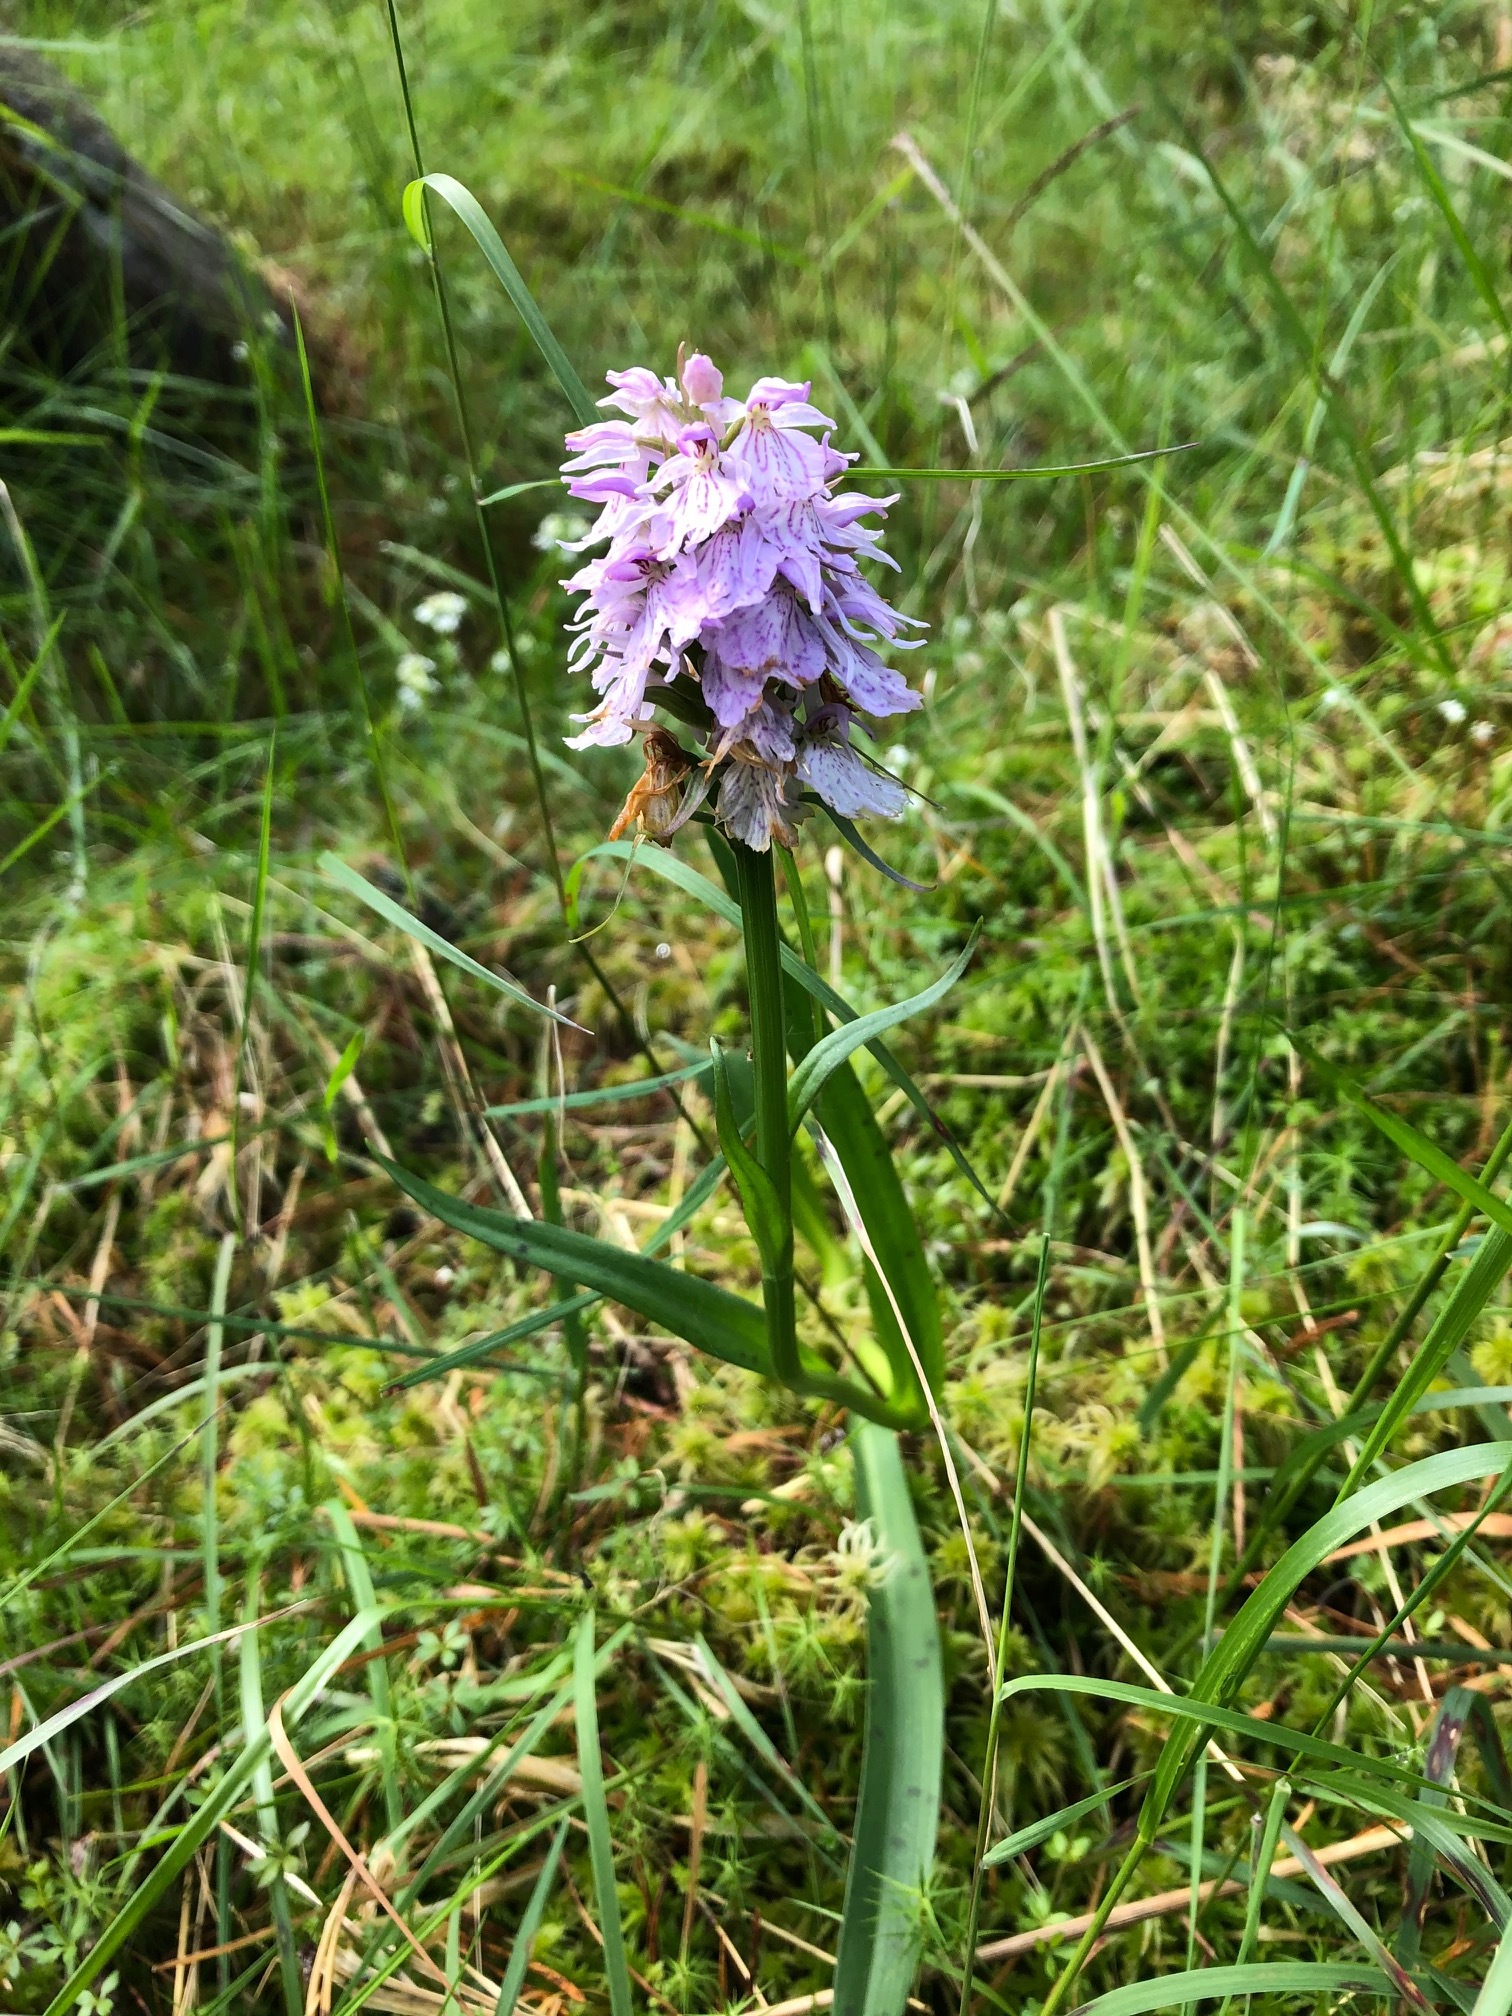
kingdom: Plantae
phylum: Tracheophyta
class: Liliopsida
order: Asparagales
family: Orchidaceae
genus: Dactylorhiza
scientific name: Dactylorhiza maculata
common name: Heath spotted-orchid
